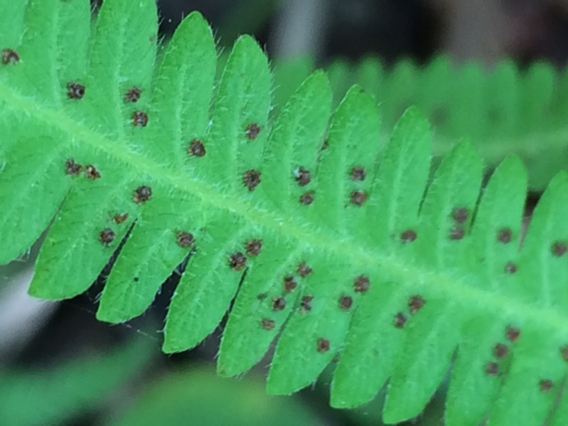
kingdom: Plantae
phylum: Tracheophyta
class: Polypodiopsida
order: Polypodiales
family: Thelypteridaceae
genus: Pelazoneuron
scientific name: Pelazoneuron kunthii
